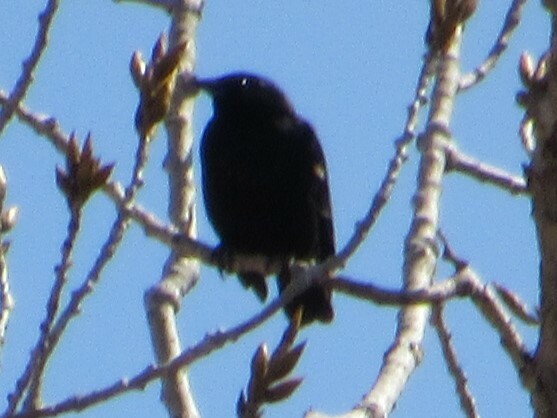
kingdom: Animalia
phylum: Chordata
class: Aves
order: Passeriformes
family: Icteridae
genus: Agelaius
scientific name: Agelaius phoeniceus
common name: Red-winged blackbird
